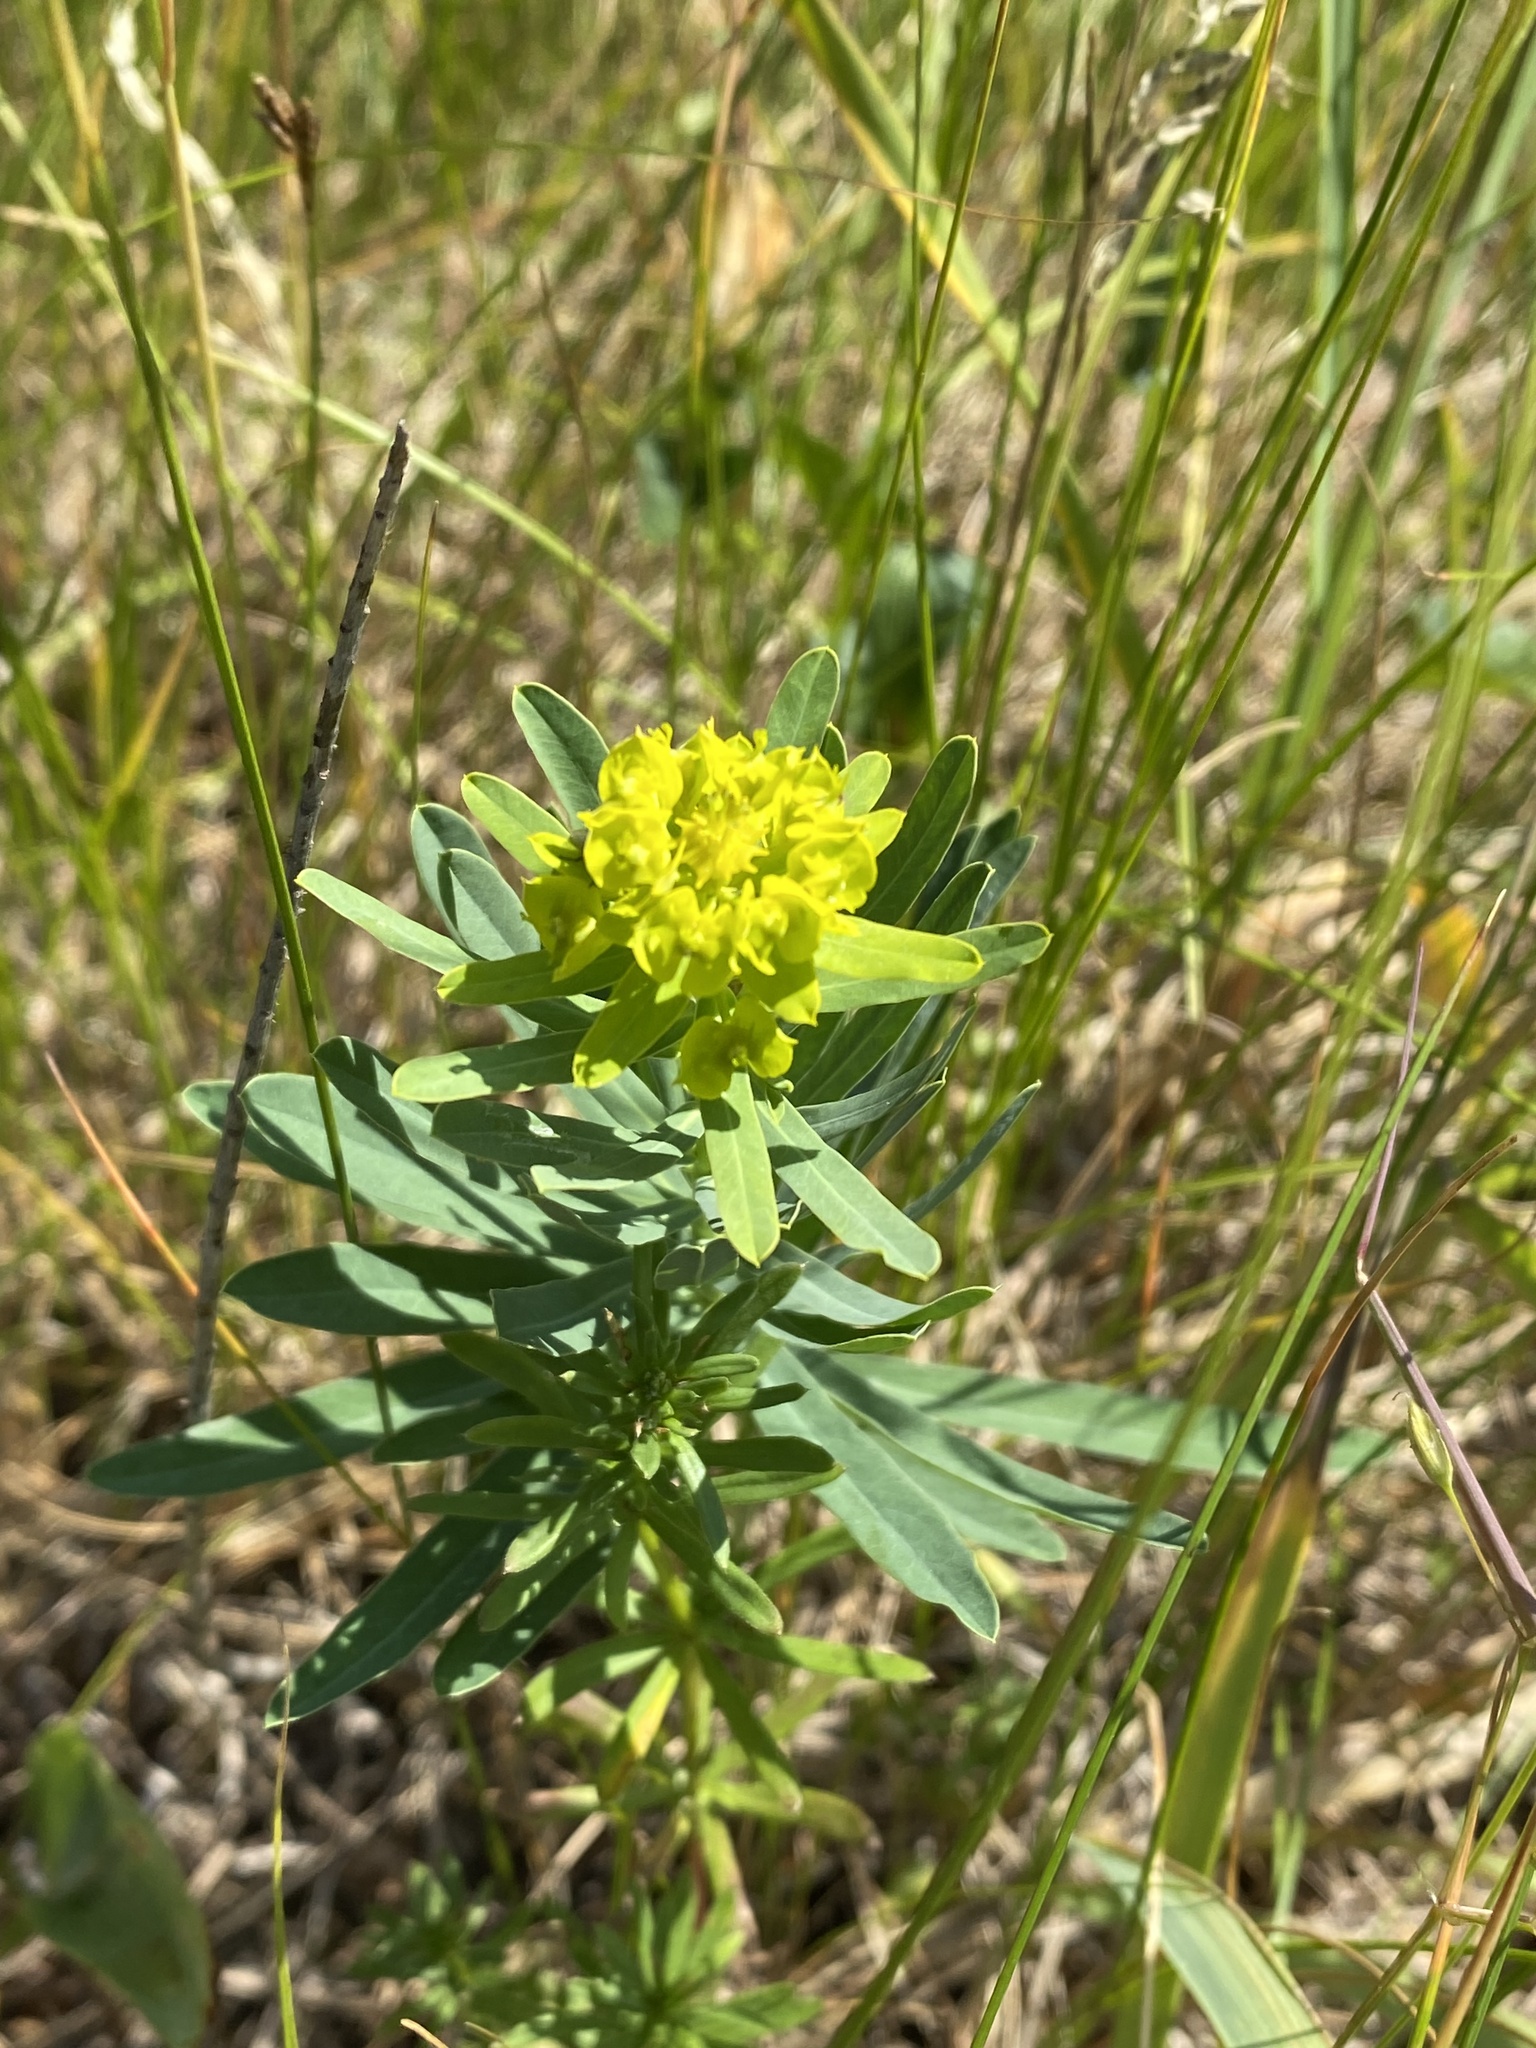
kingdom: Plantae
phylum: Tracheophyta
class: Magnoliopsida
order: Malpighiales
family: Euphorbiaceae
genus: Euphorbia
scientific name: Euphorbia virgata
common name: Leafy spurge
